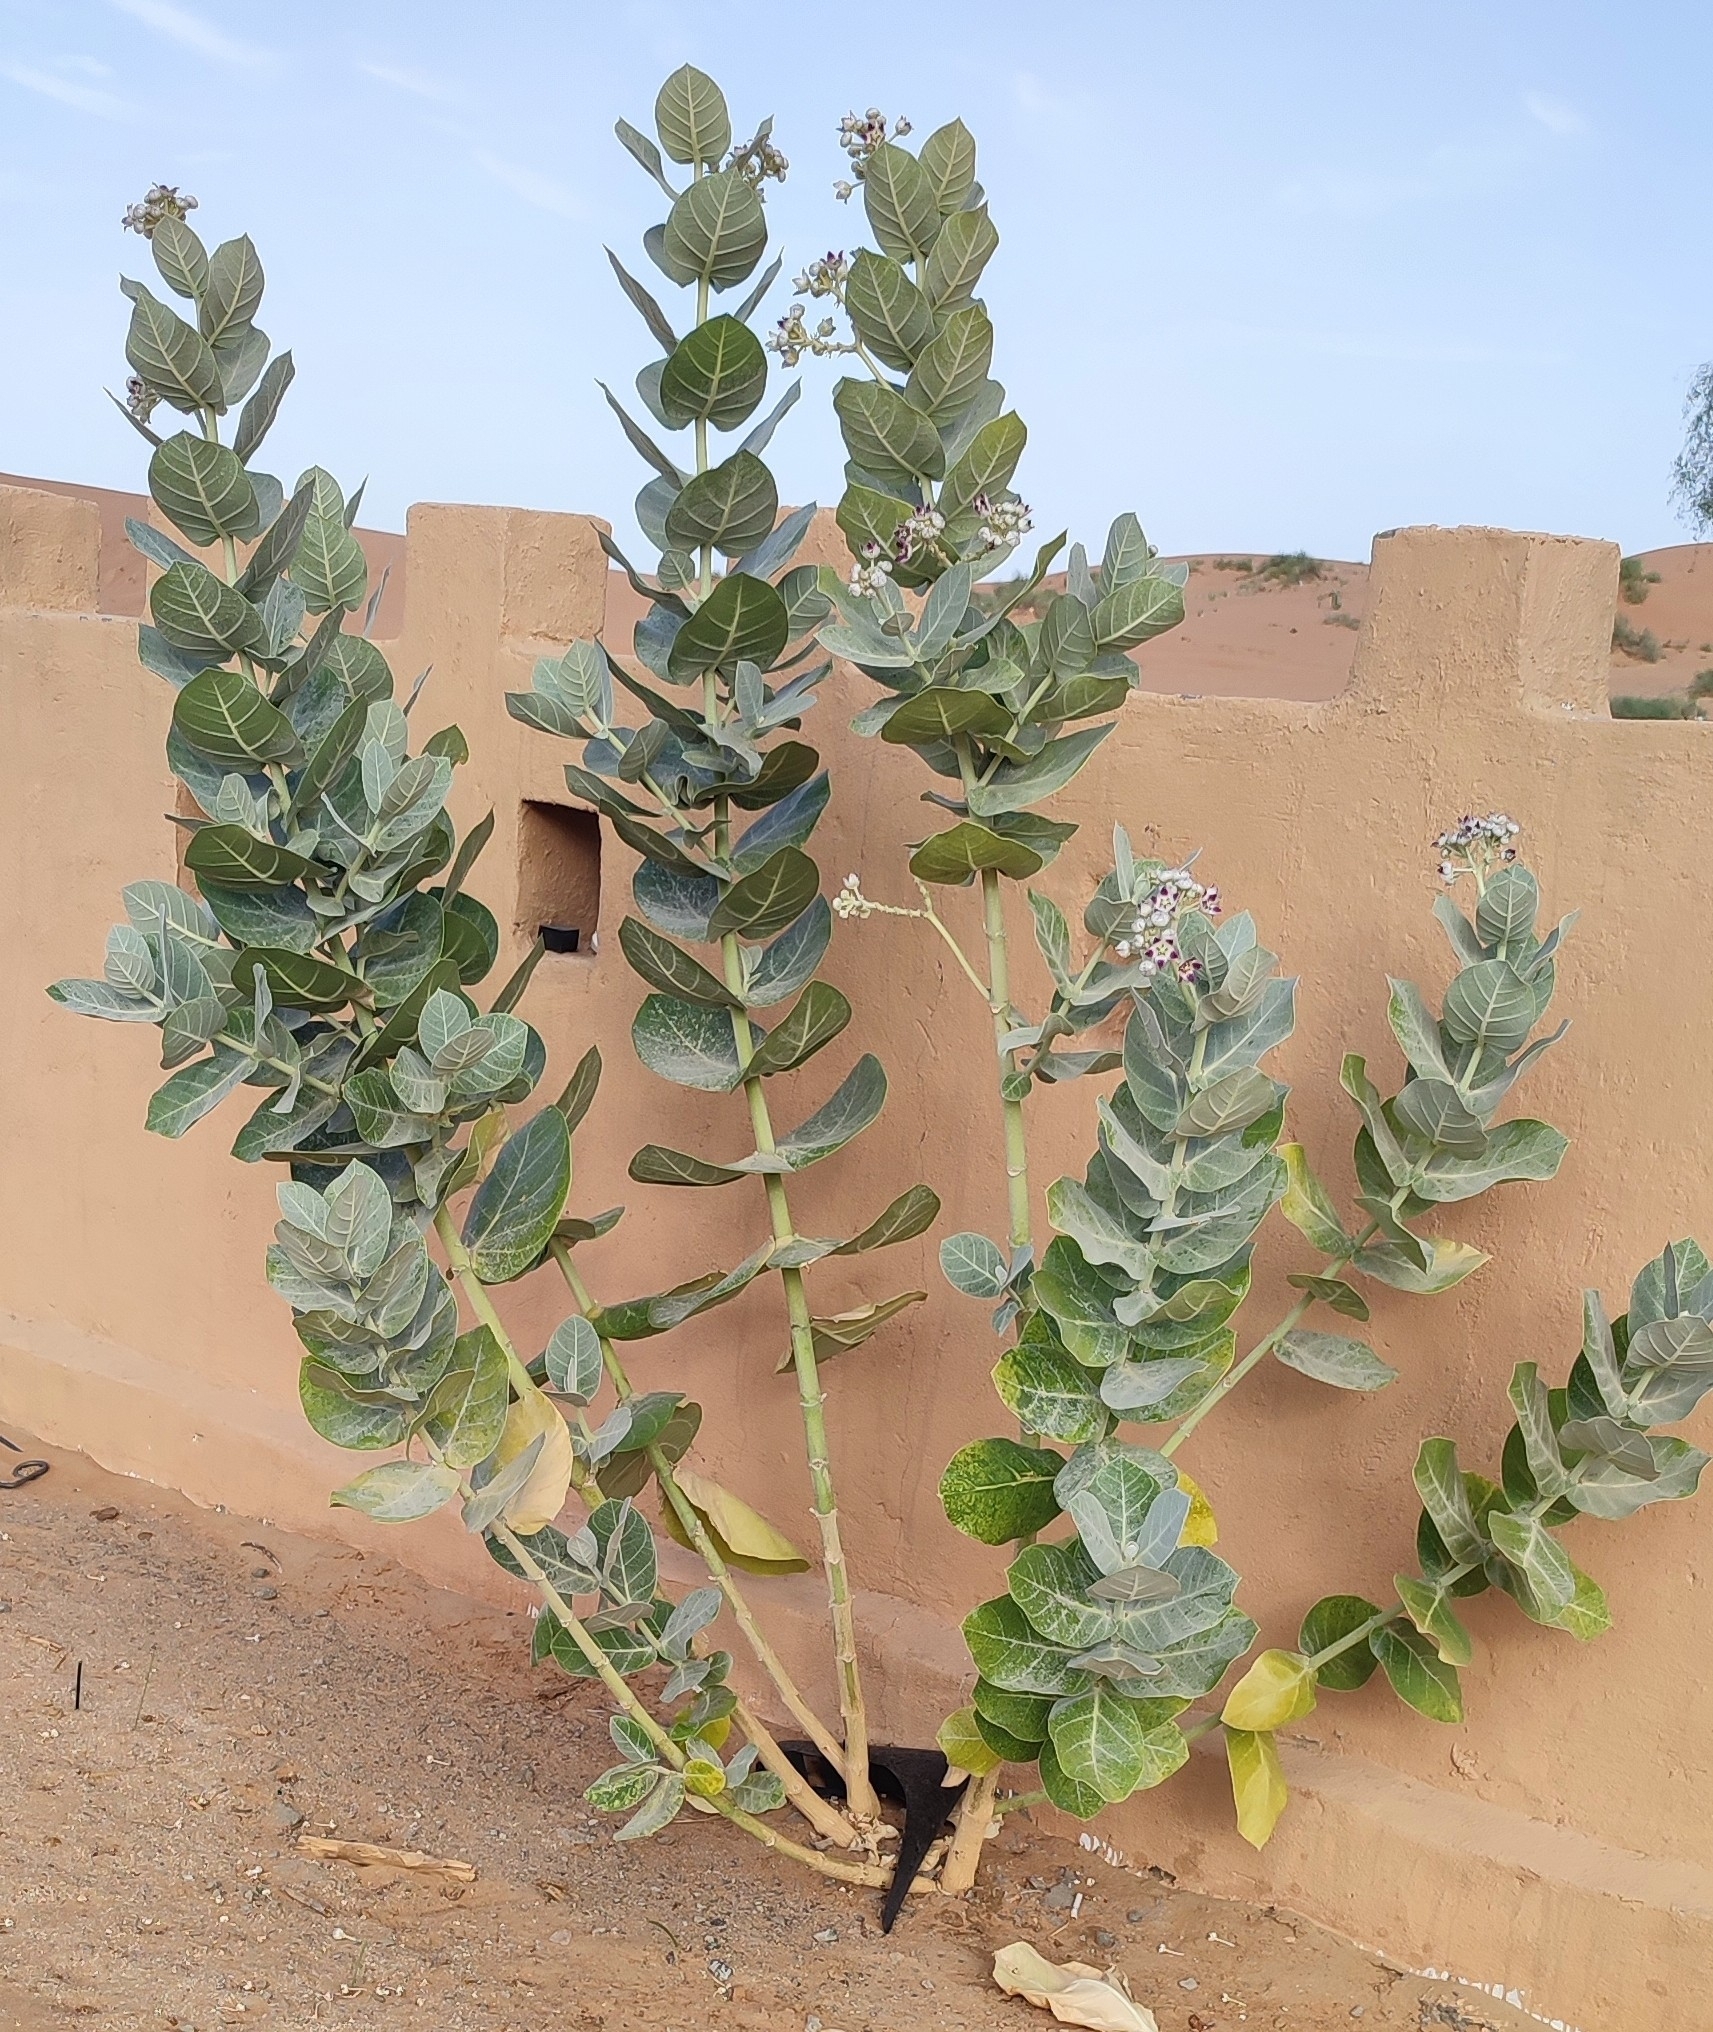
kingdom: Plantae
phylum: Tracheophyta
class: Magnoliopsida
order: Gentianales
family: Apocynaceae
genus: Calotropis
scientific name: Calotropis procera
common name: Roostertree
